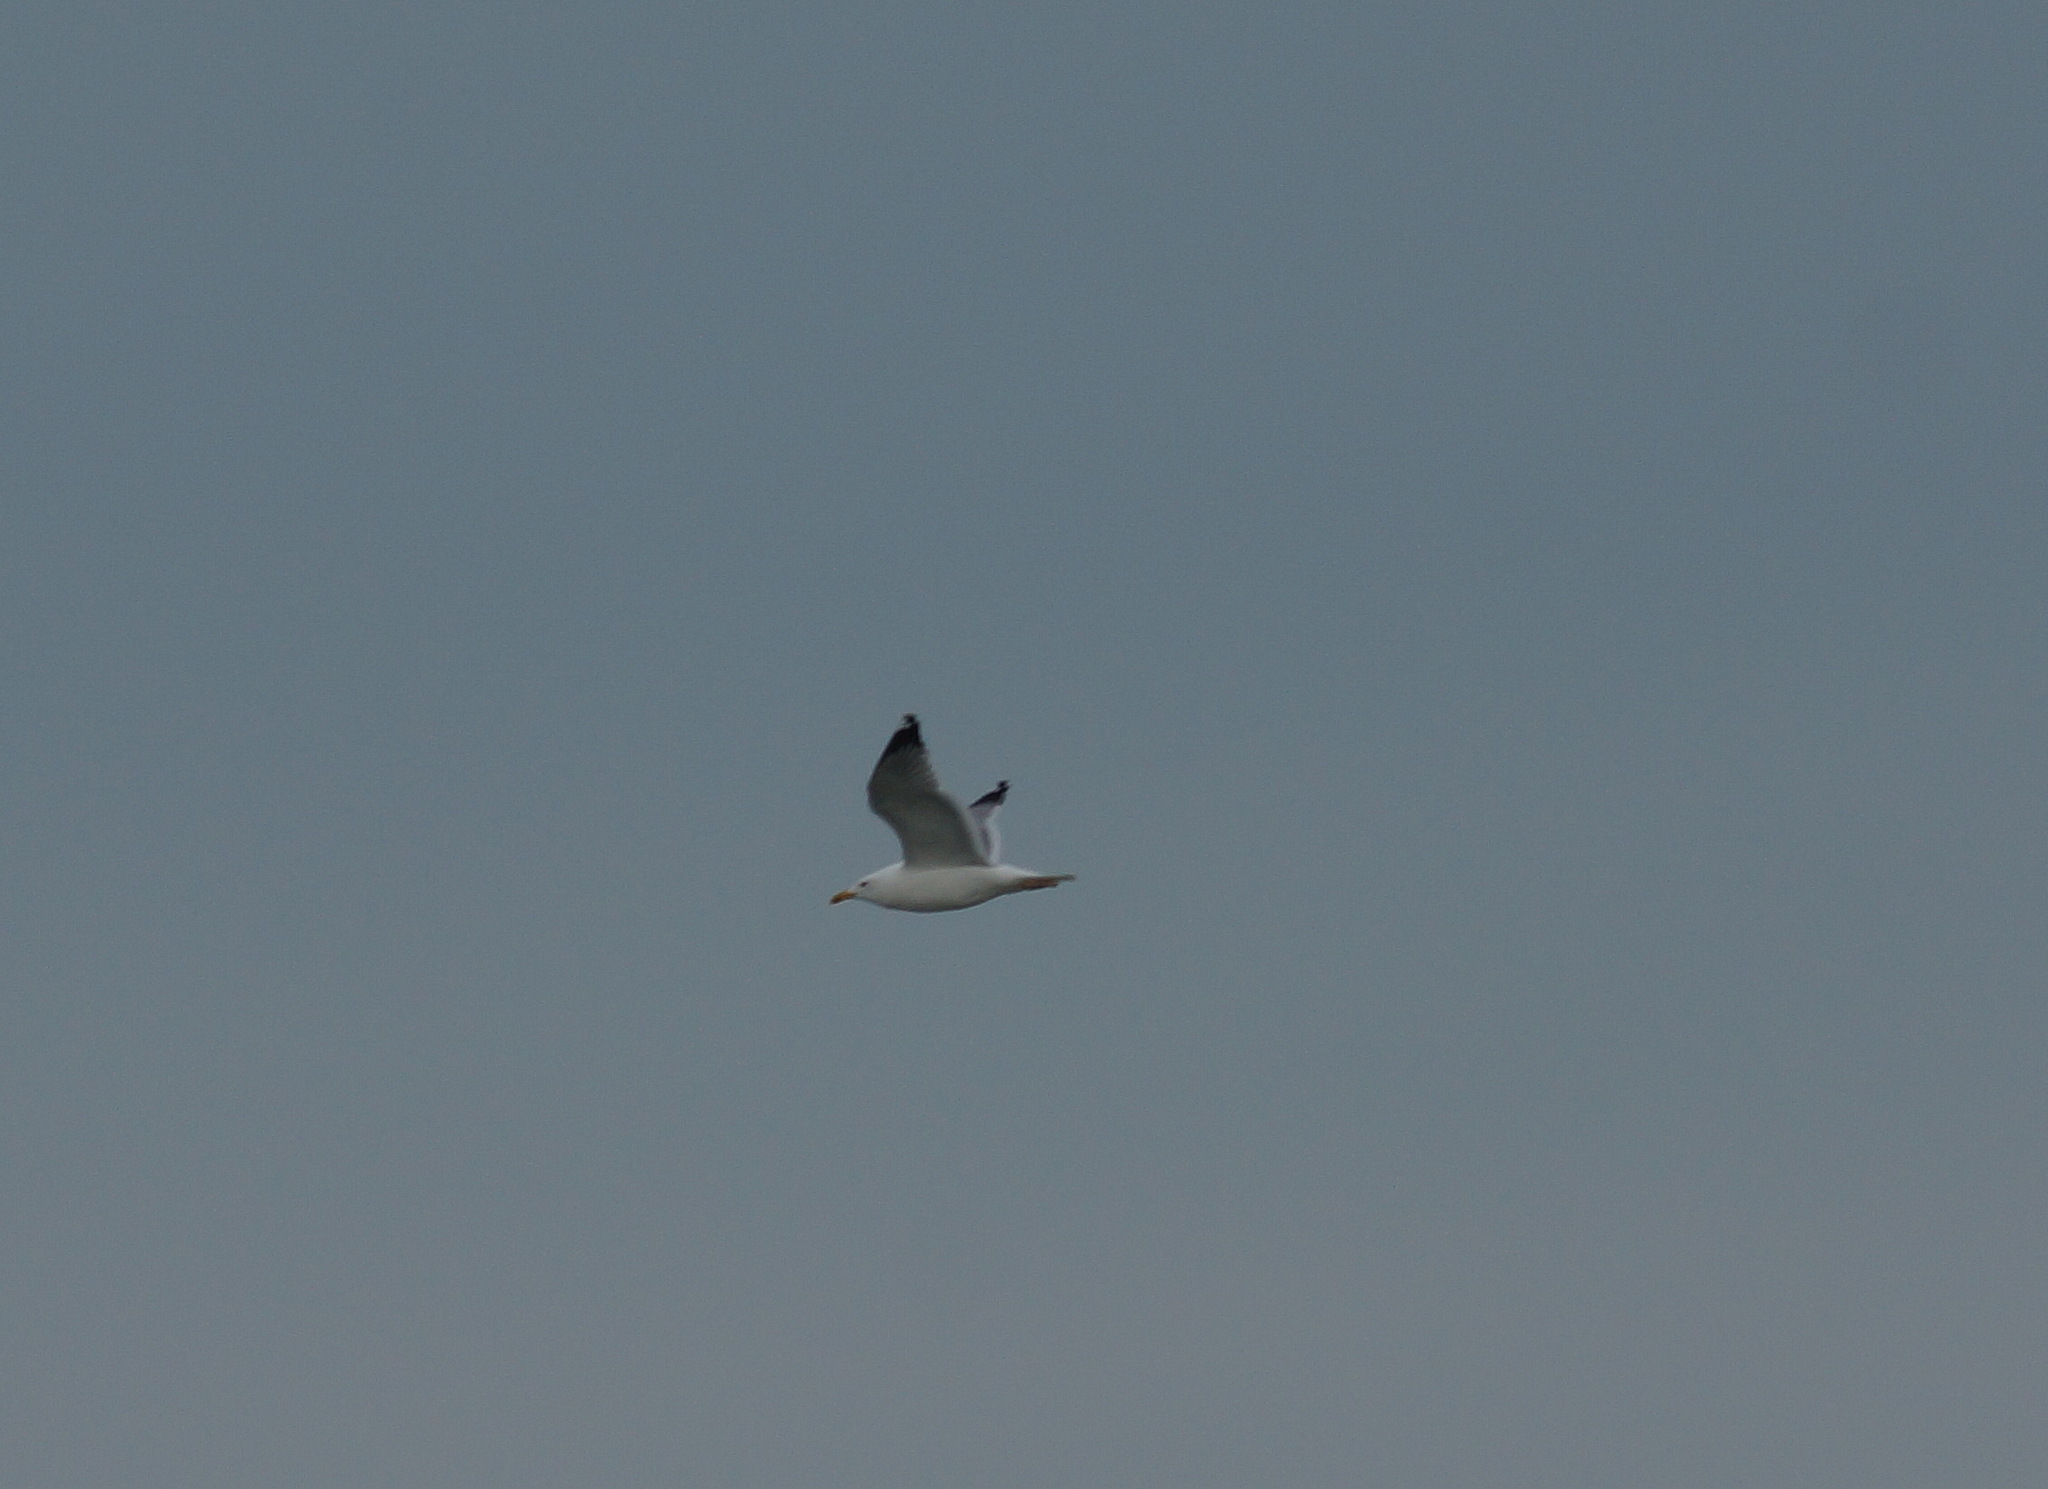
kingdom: Animalia
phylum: Chordata
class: Aves
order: Charadriiformes
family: Laridae
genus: Larus
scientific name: Larus michahellis
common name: Yellow-legged gull
